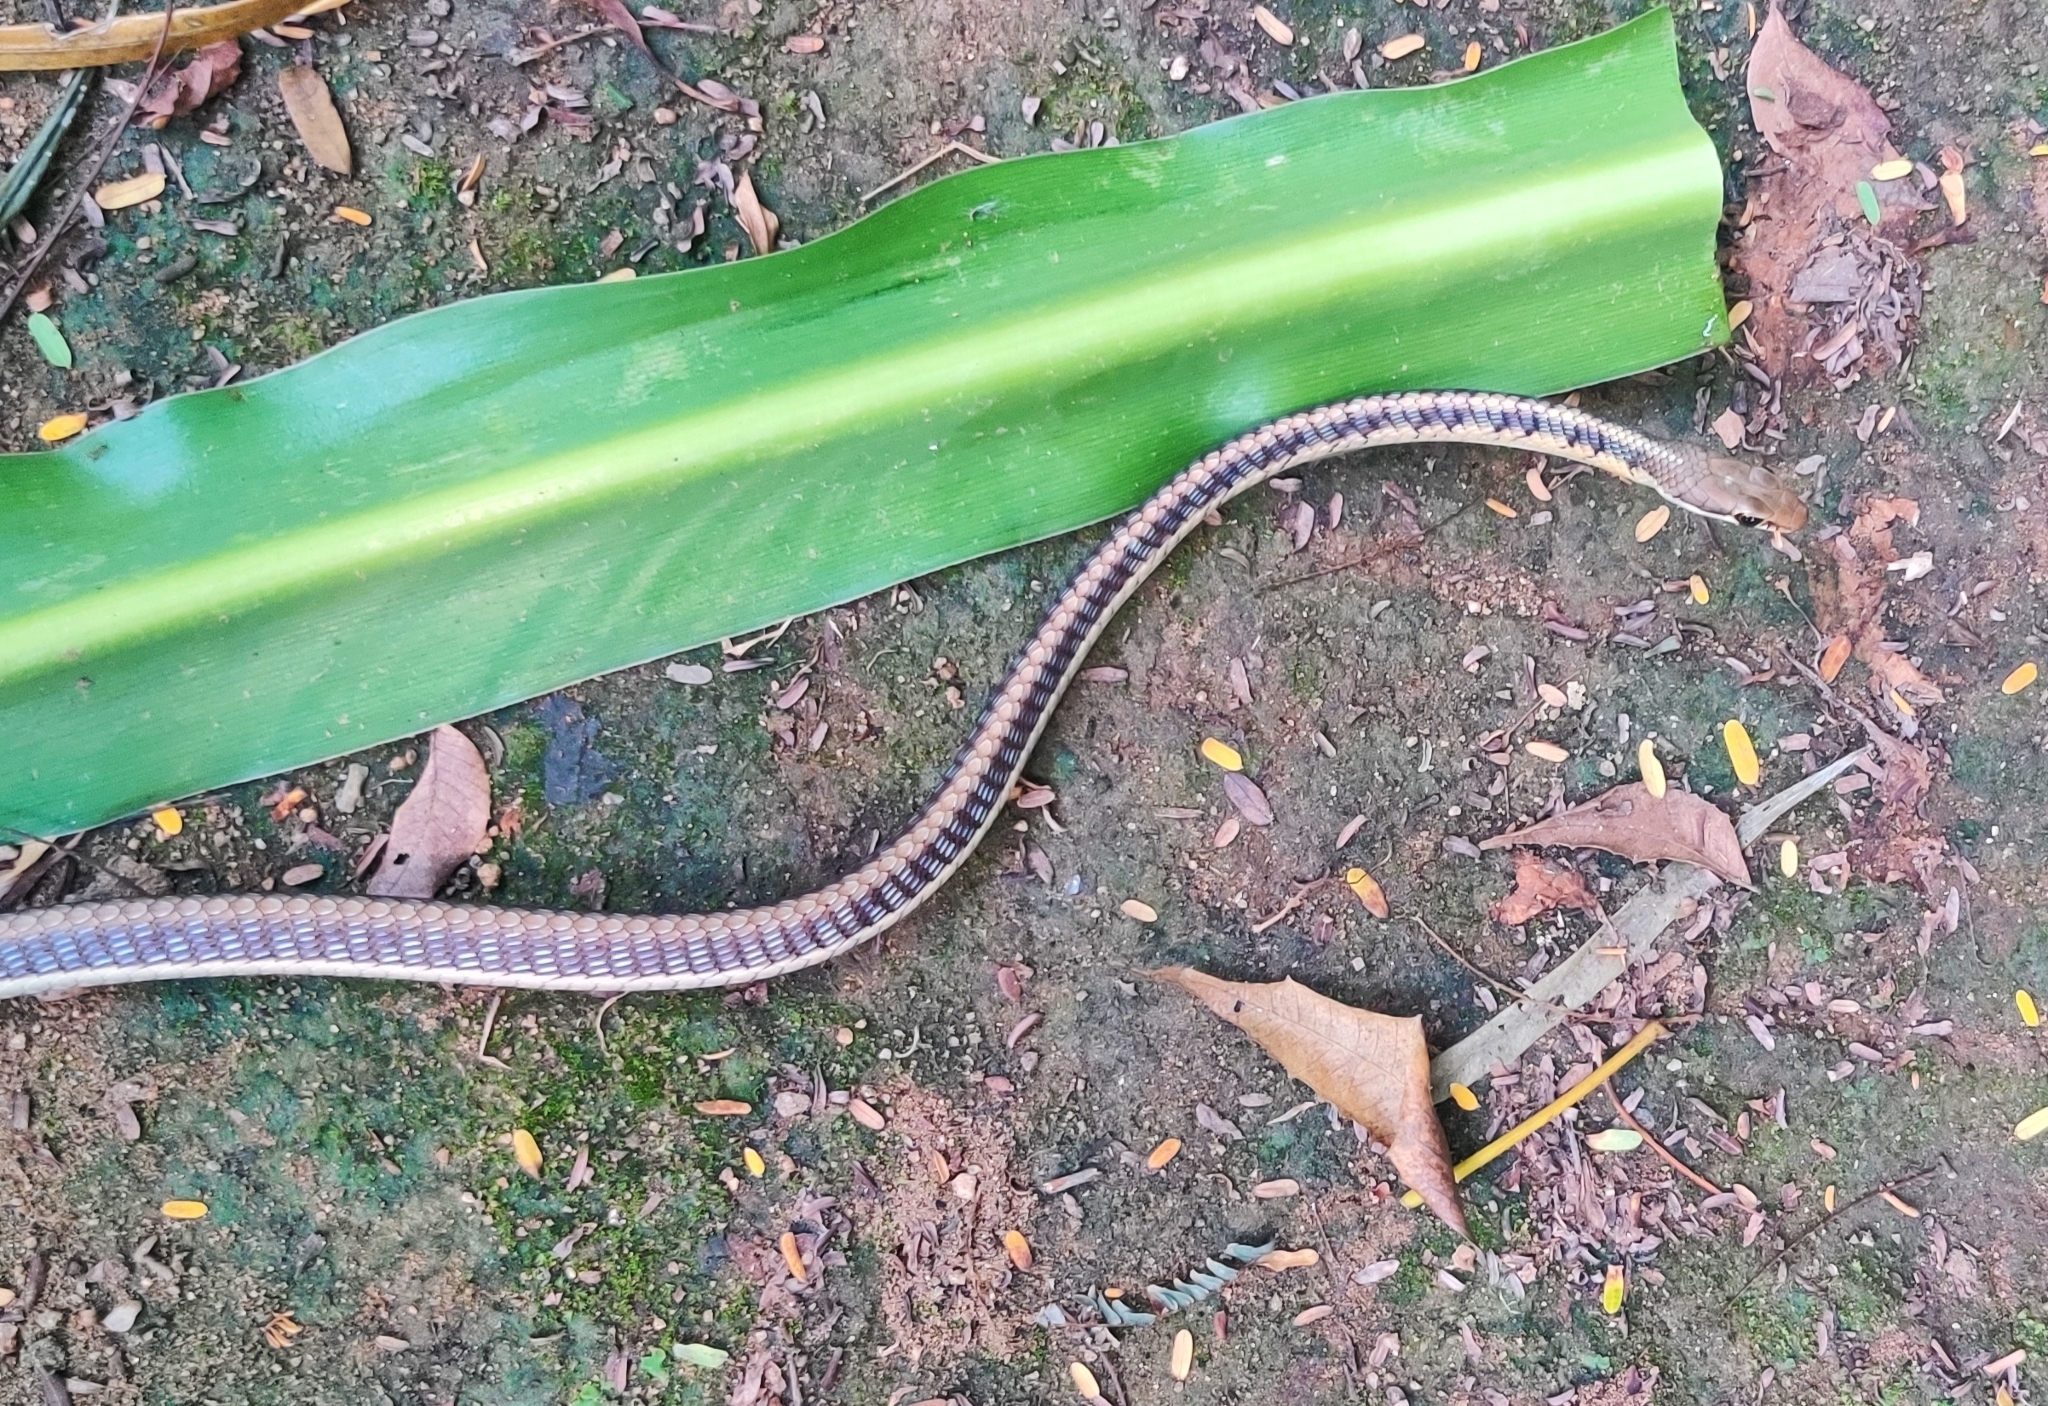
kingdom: Animalia
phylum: Chordata
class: Squamata
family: Colubridae
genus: Dendrelaphis
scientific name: Dendrelaphis tristis
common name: Daudin's bronzeback
